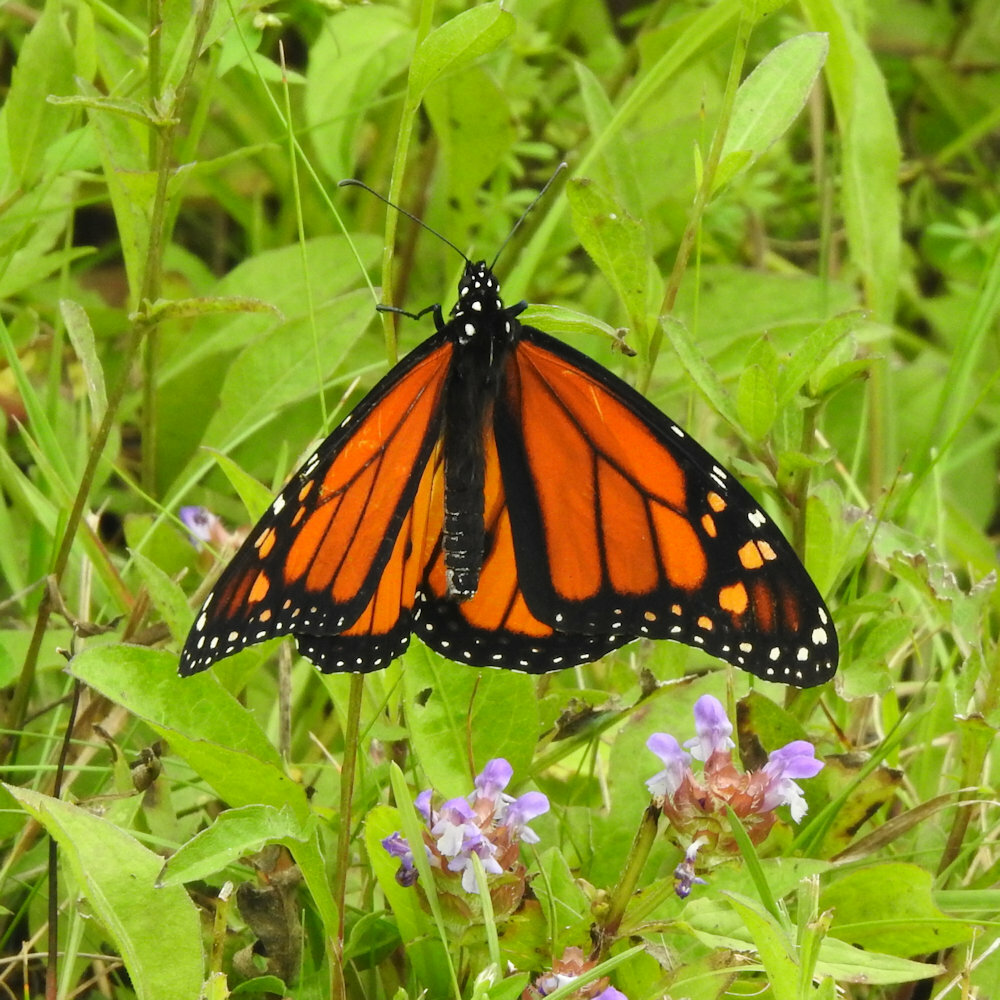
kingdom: Animalia
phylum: Arthropoda
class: Insecta
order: Lepidoptera
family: Nymphalidae
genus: Danaus
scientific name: Danaus plexippus
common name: Monarch
